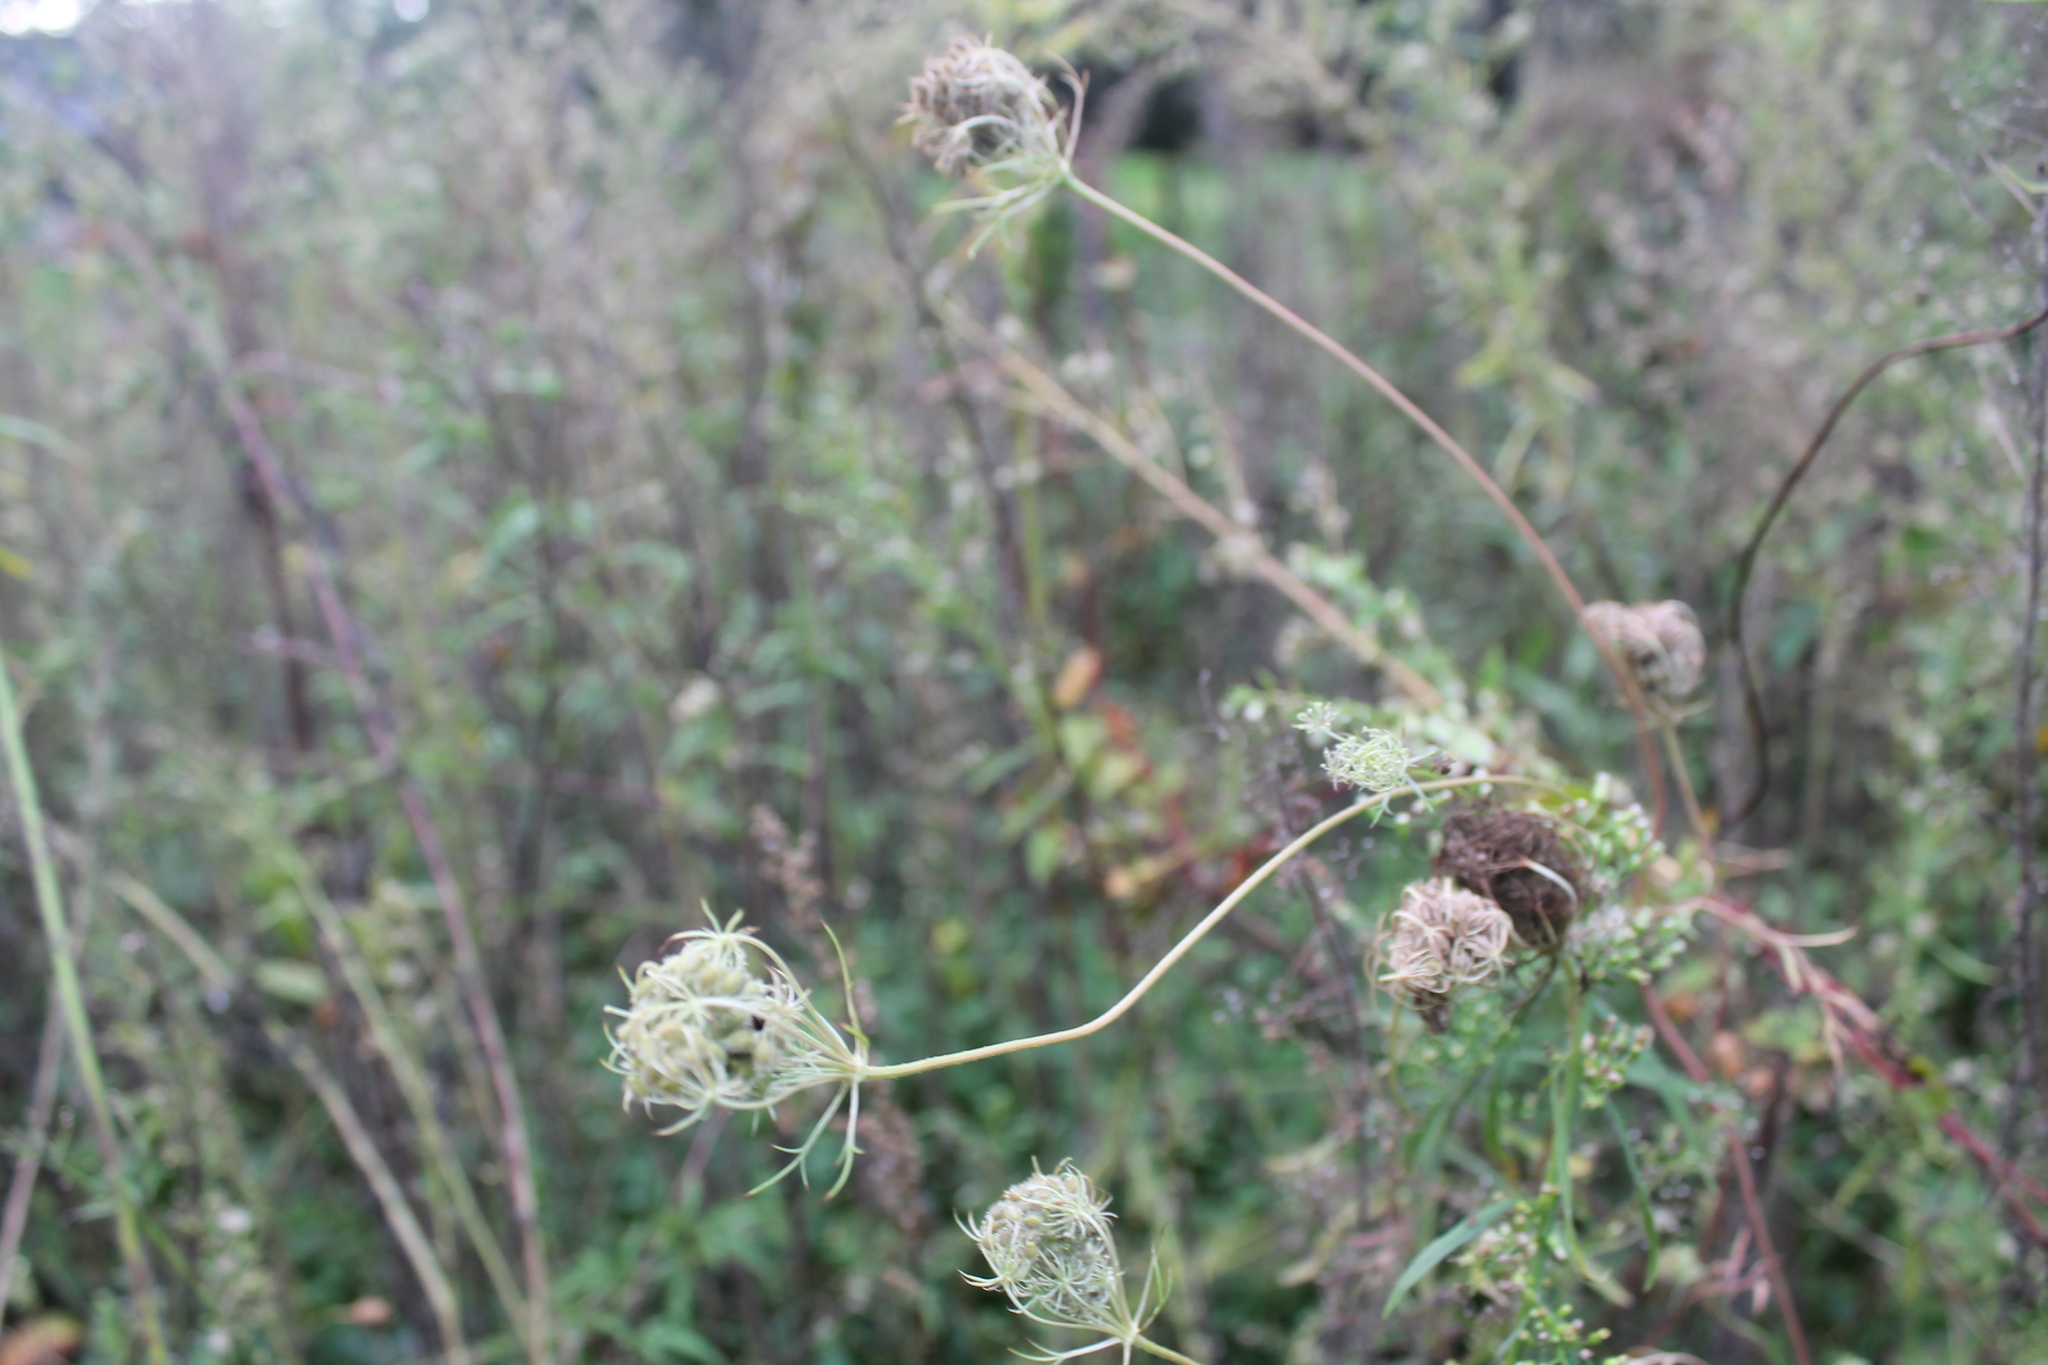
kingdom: Plantae
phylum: Tracheophyta
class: Magnoliopsida
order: Apiales
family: Apiaceae
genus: Daucus
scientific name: Daucus carota
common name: Wild carrot
